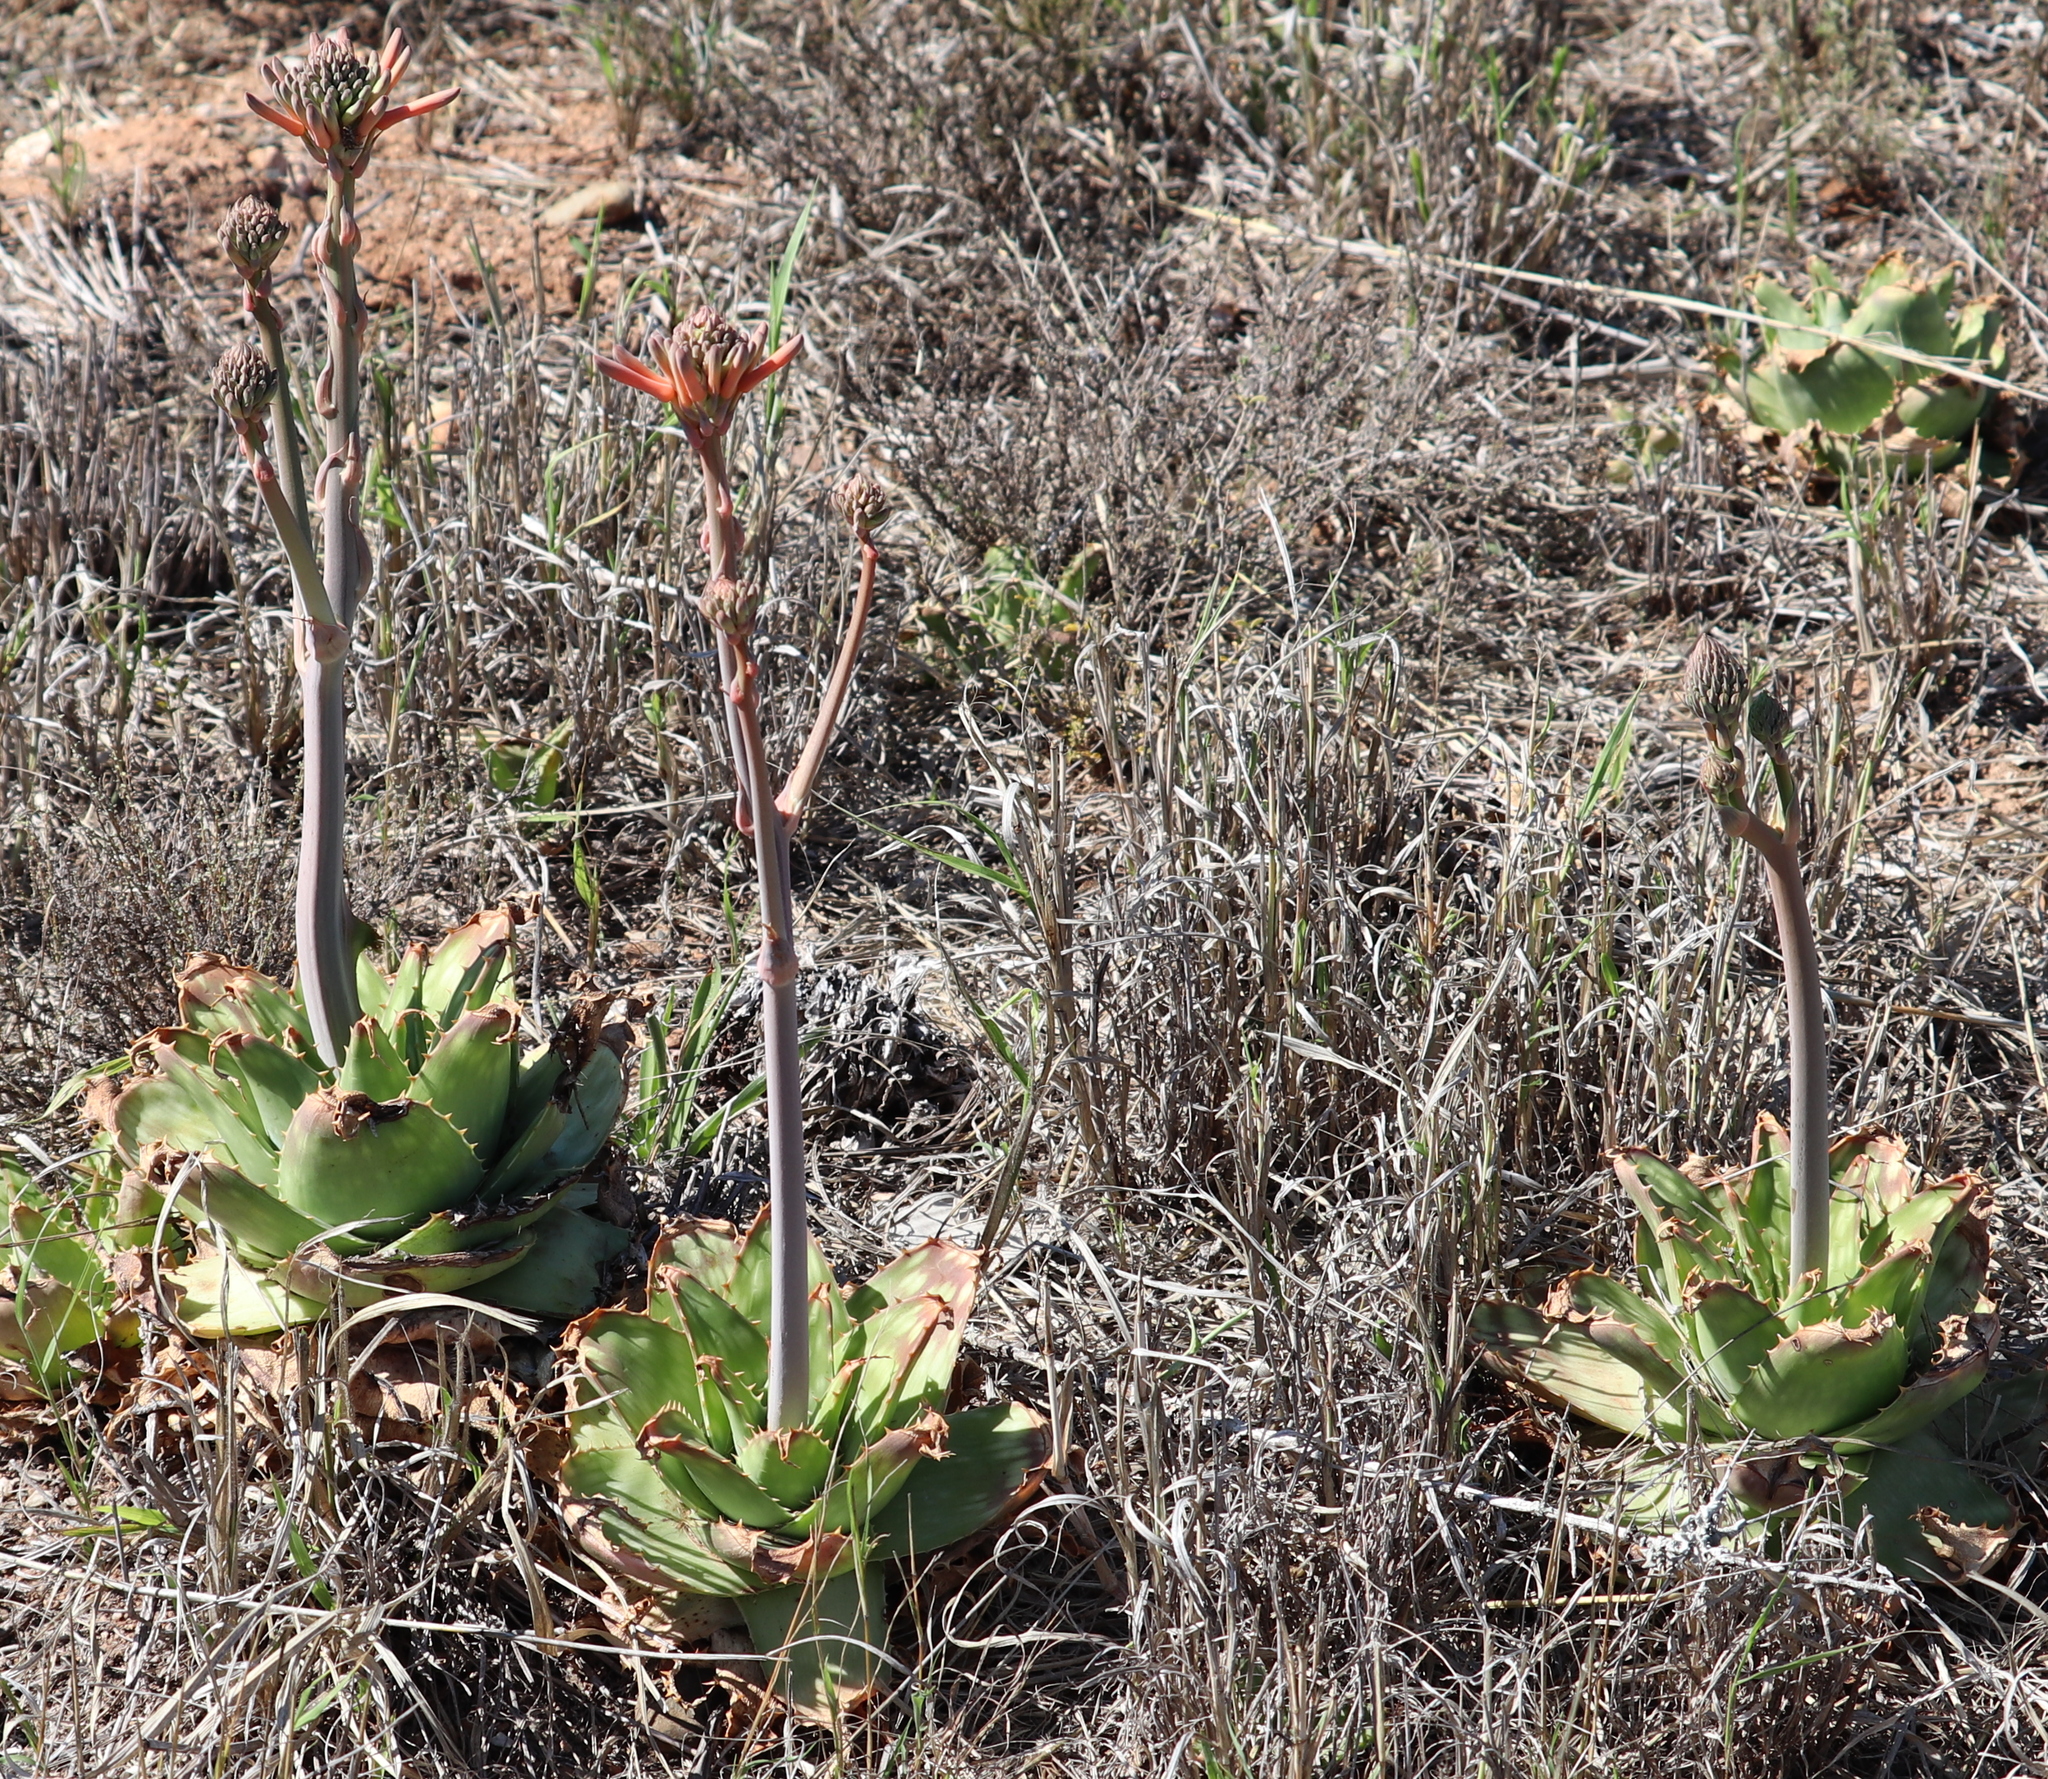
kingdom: Plantae
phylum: Tracheophyta
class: Liliopsida
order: Asparagales
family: Asphodelaceae
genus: Aloe
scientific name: Aloe maculata
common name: Broadleaf aloe
